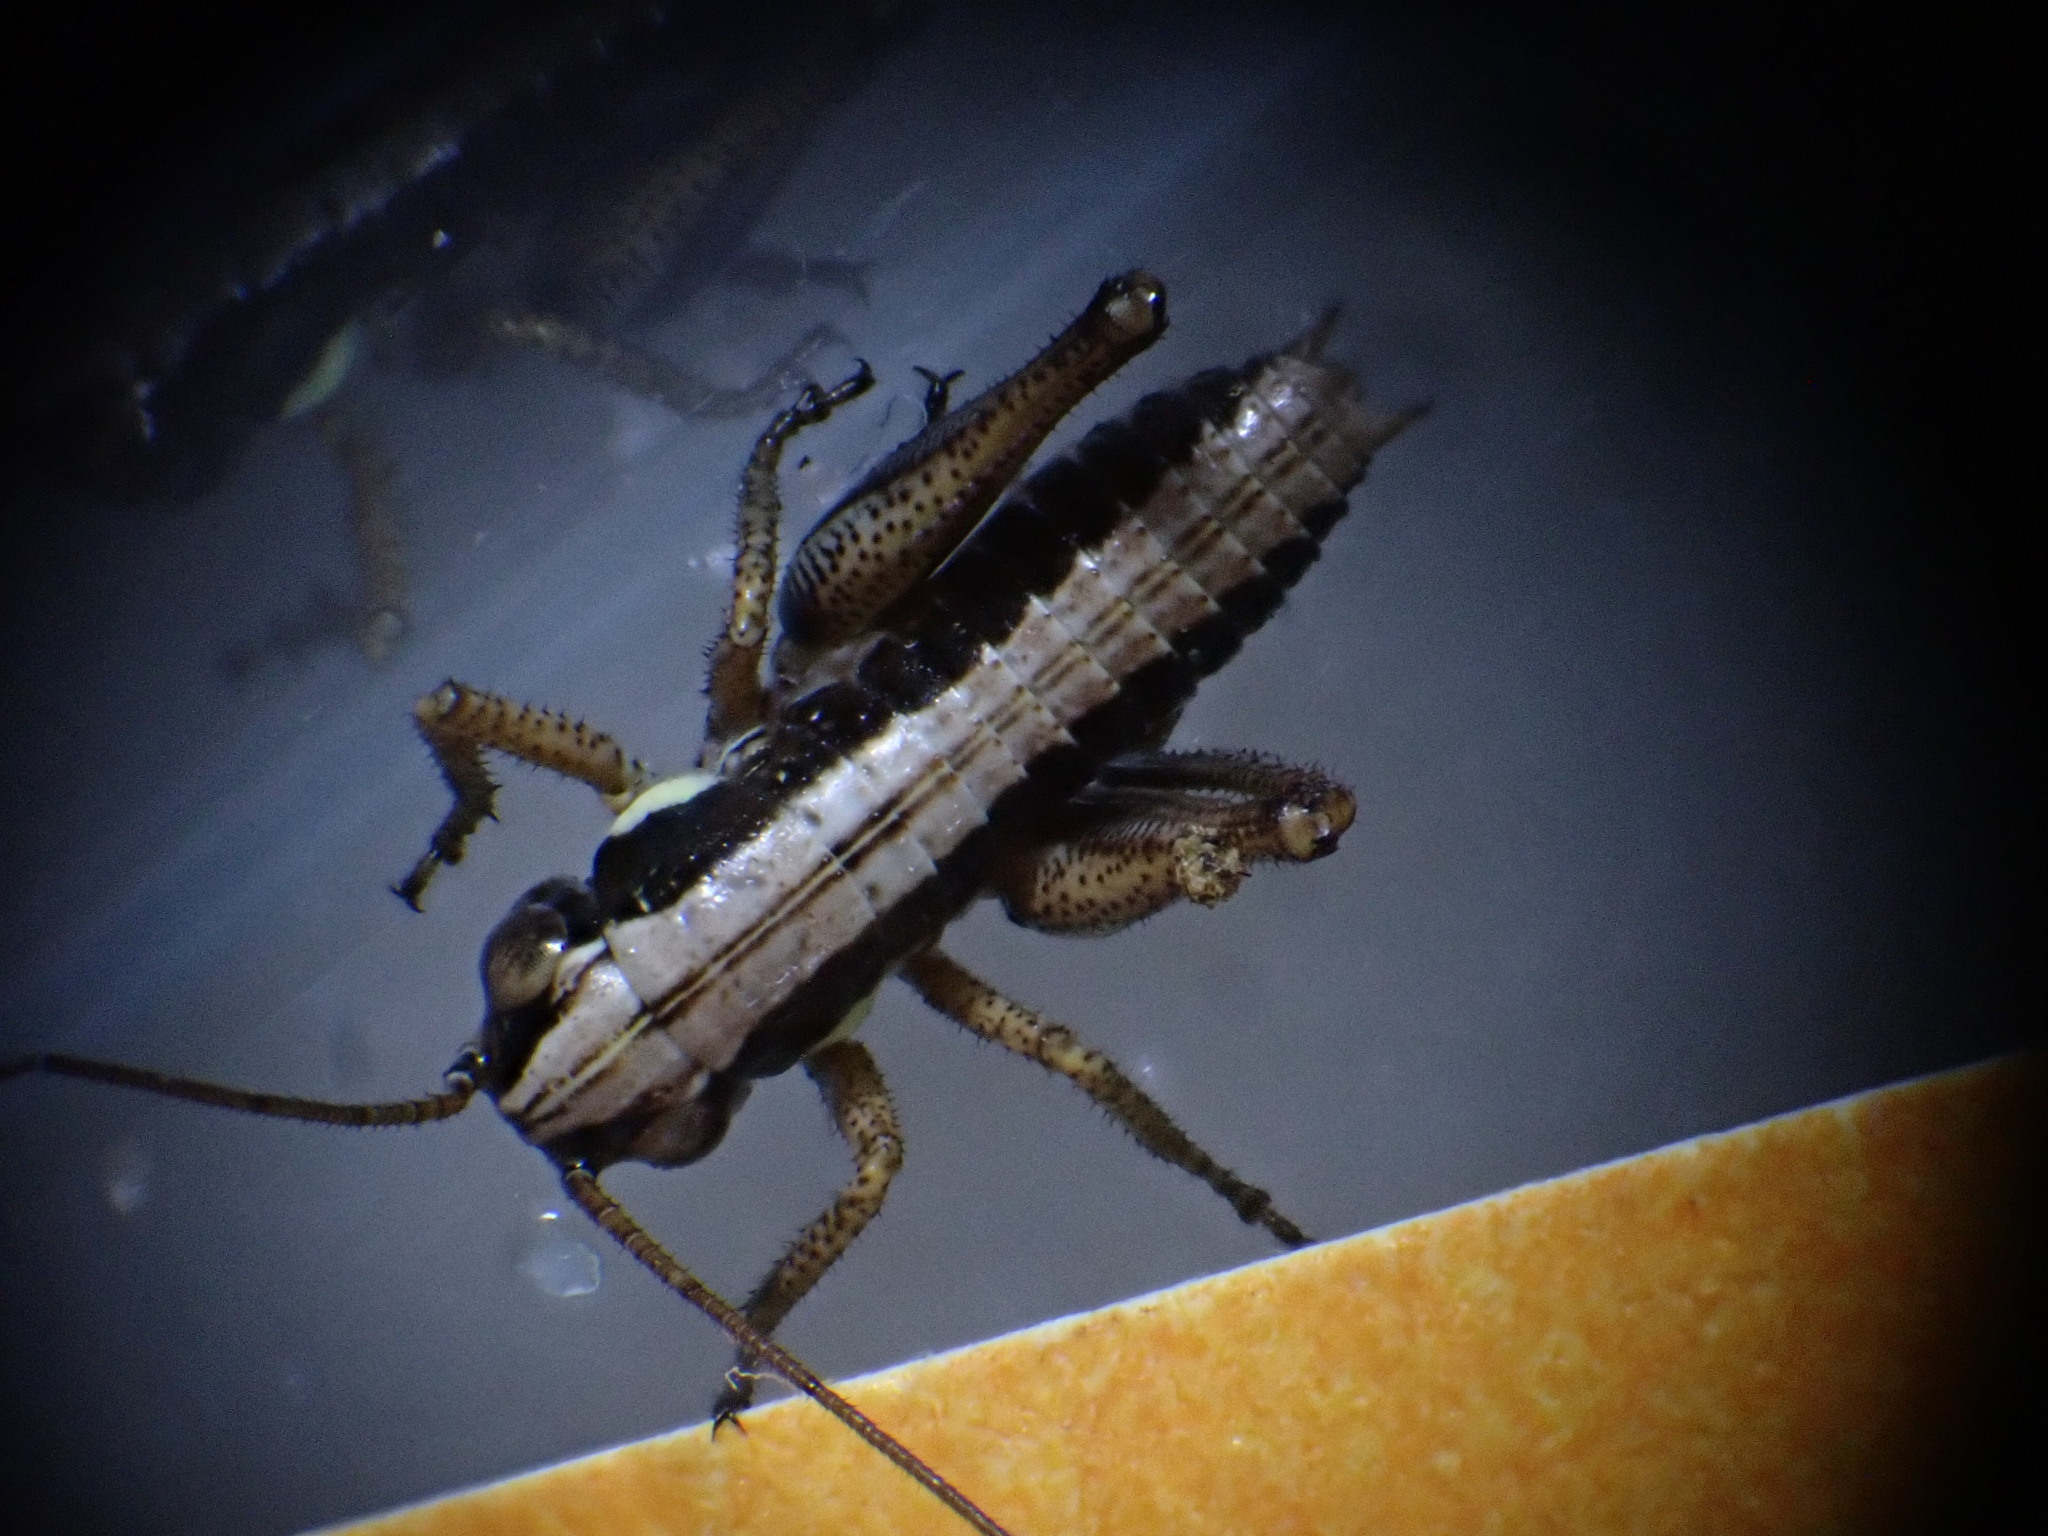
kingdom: Animalia
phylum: Arthropoda
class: Insecta
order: Orthoptera
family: Tettigoniidae
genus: Platycleis
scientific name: Platycleis albopunctata
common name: Grey bush-cricket
